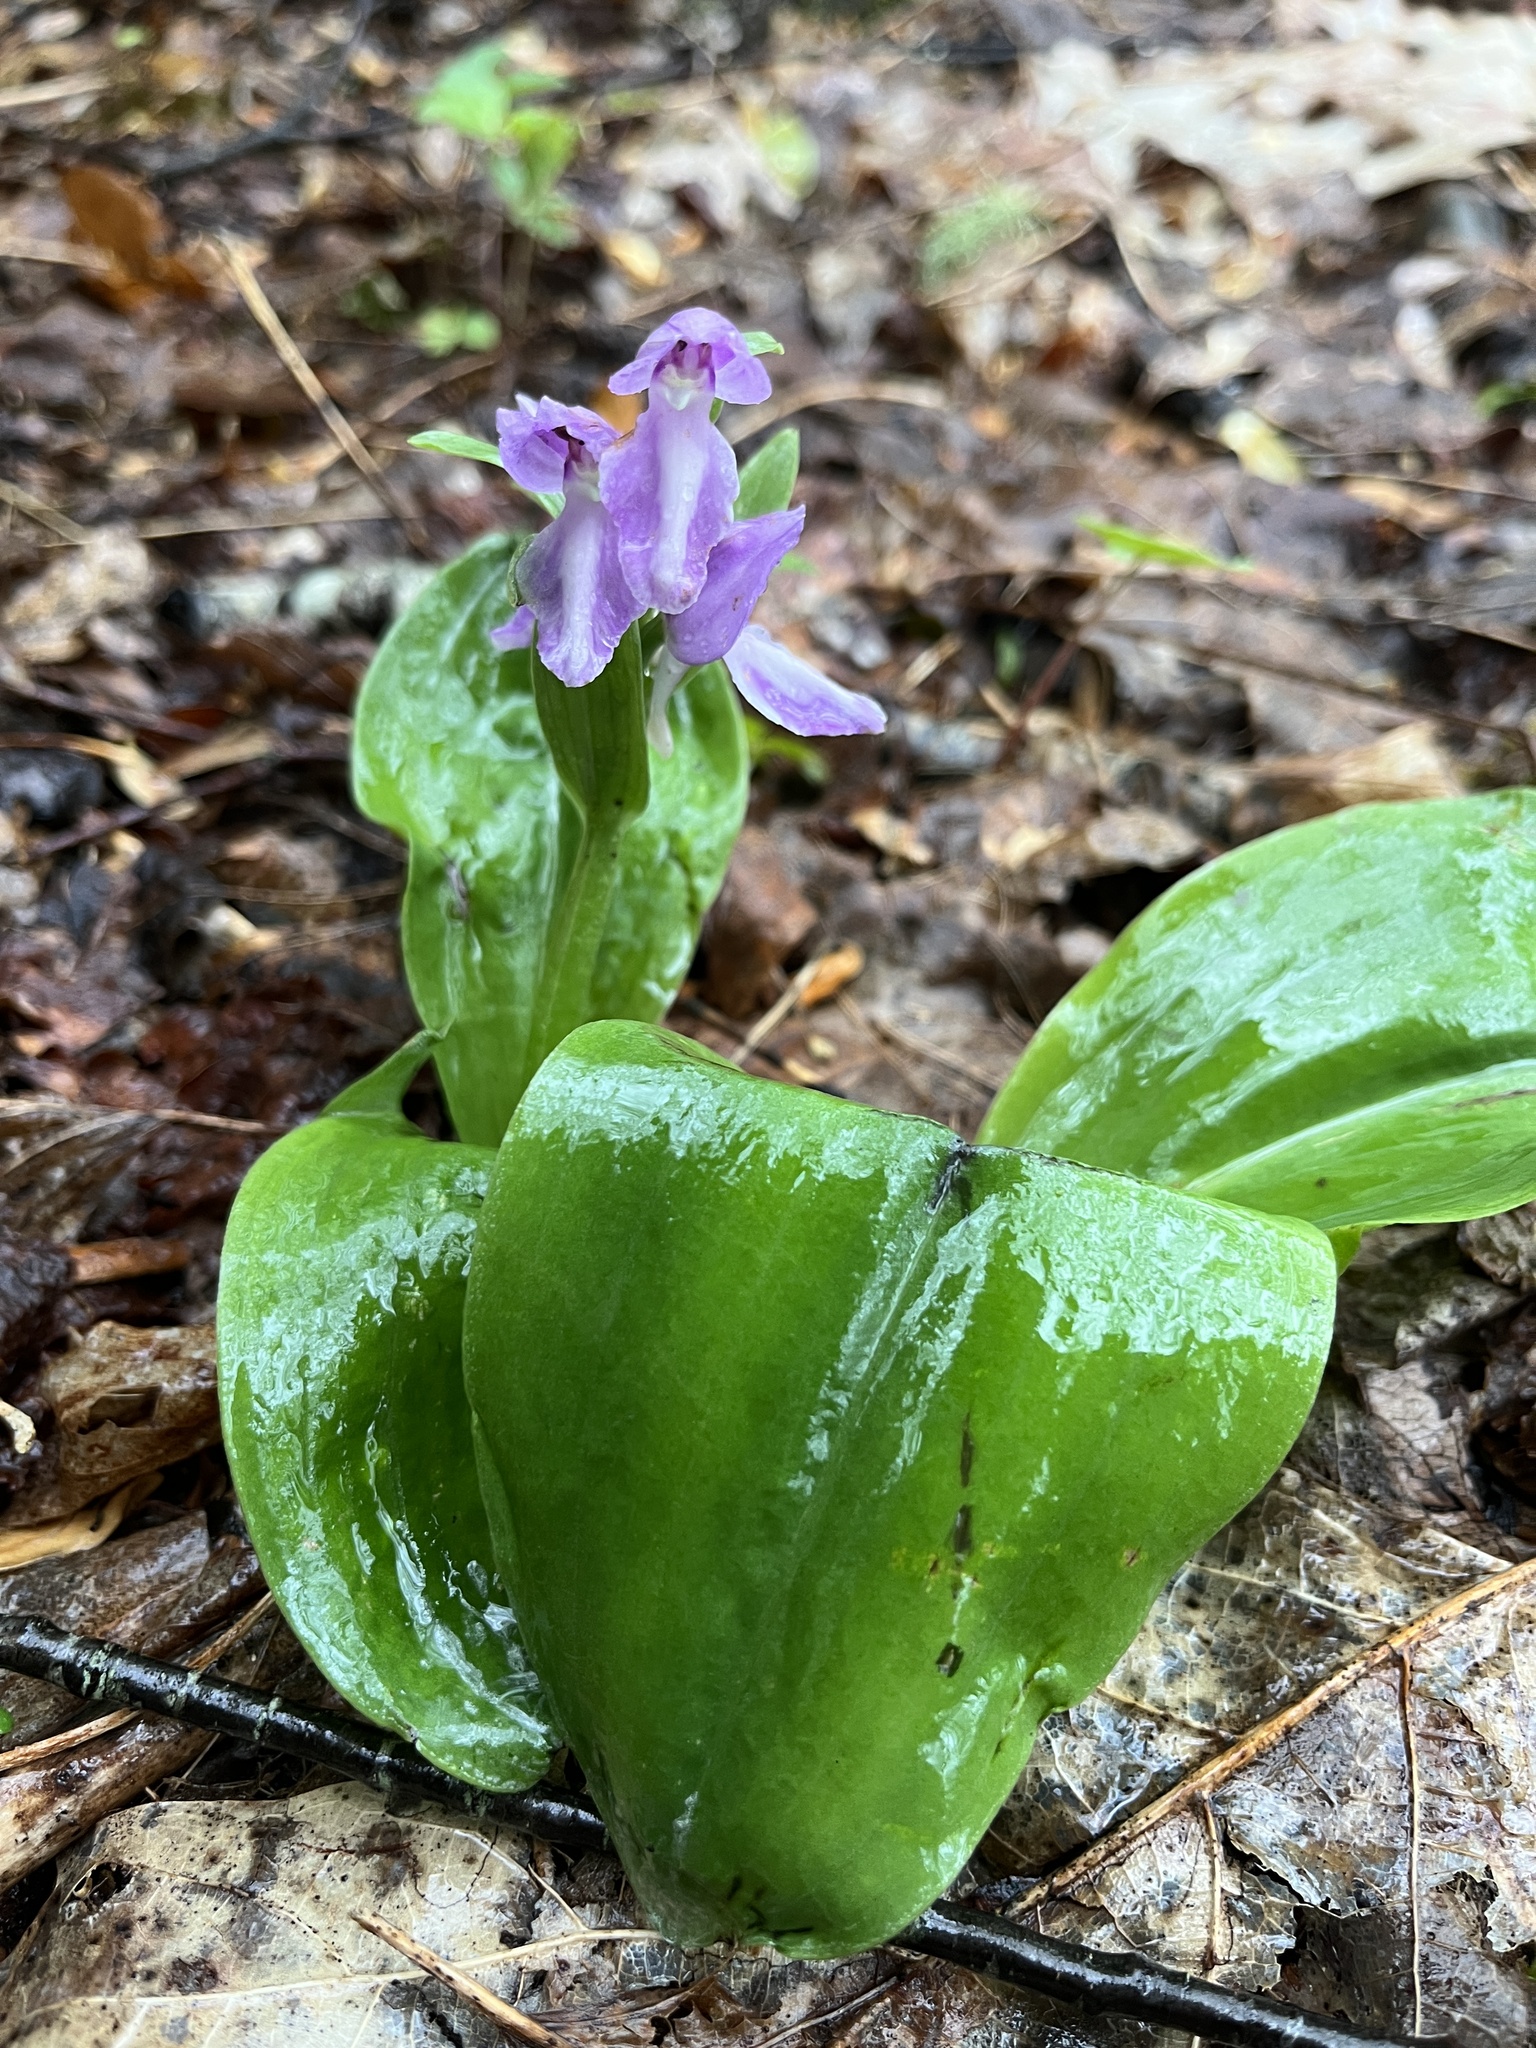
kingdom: Plantae
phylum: Tracheophyta
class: Liliopsida
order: Asparagales
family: Orchidaceae
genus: Galearis
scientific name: Galearis spectabilis
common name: Purple-hooded orchis
